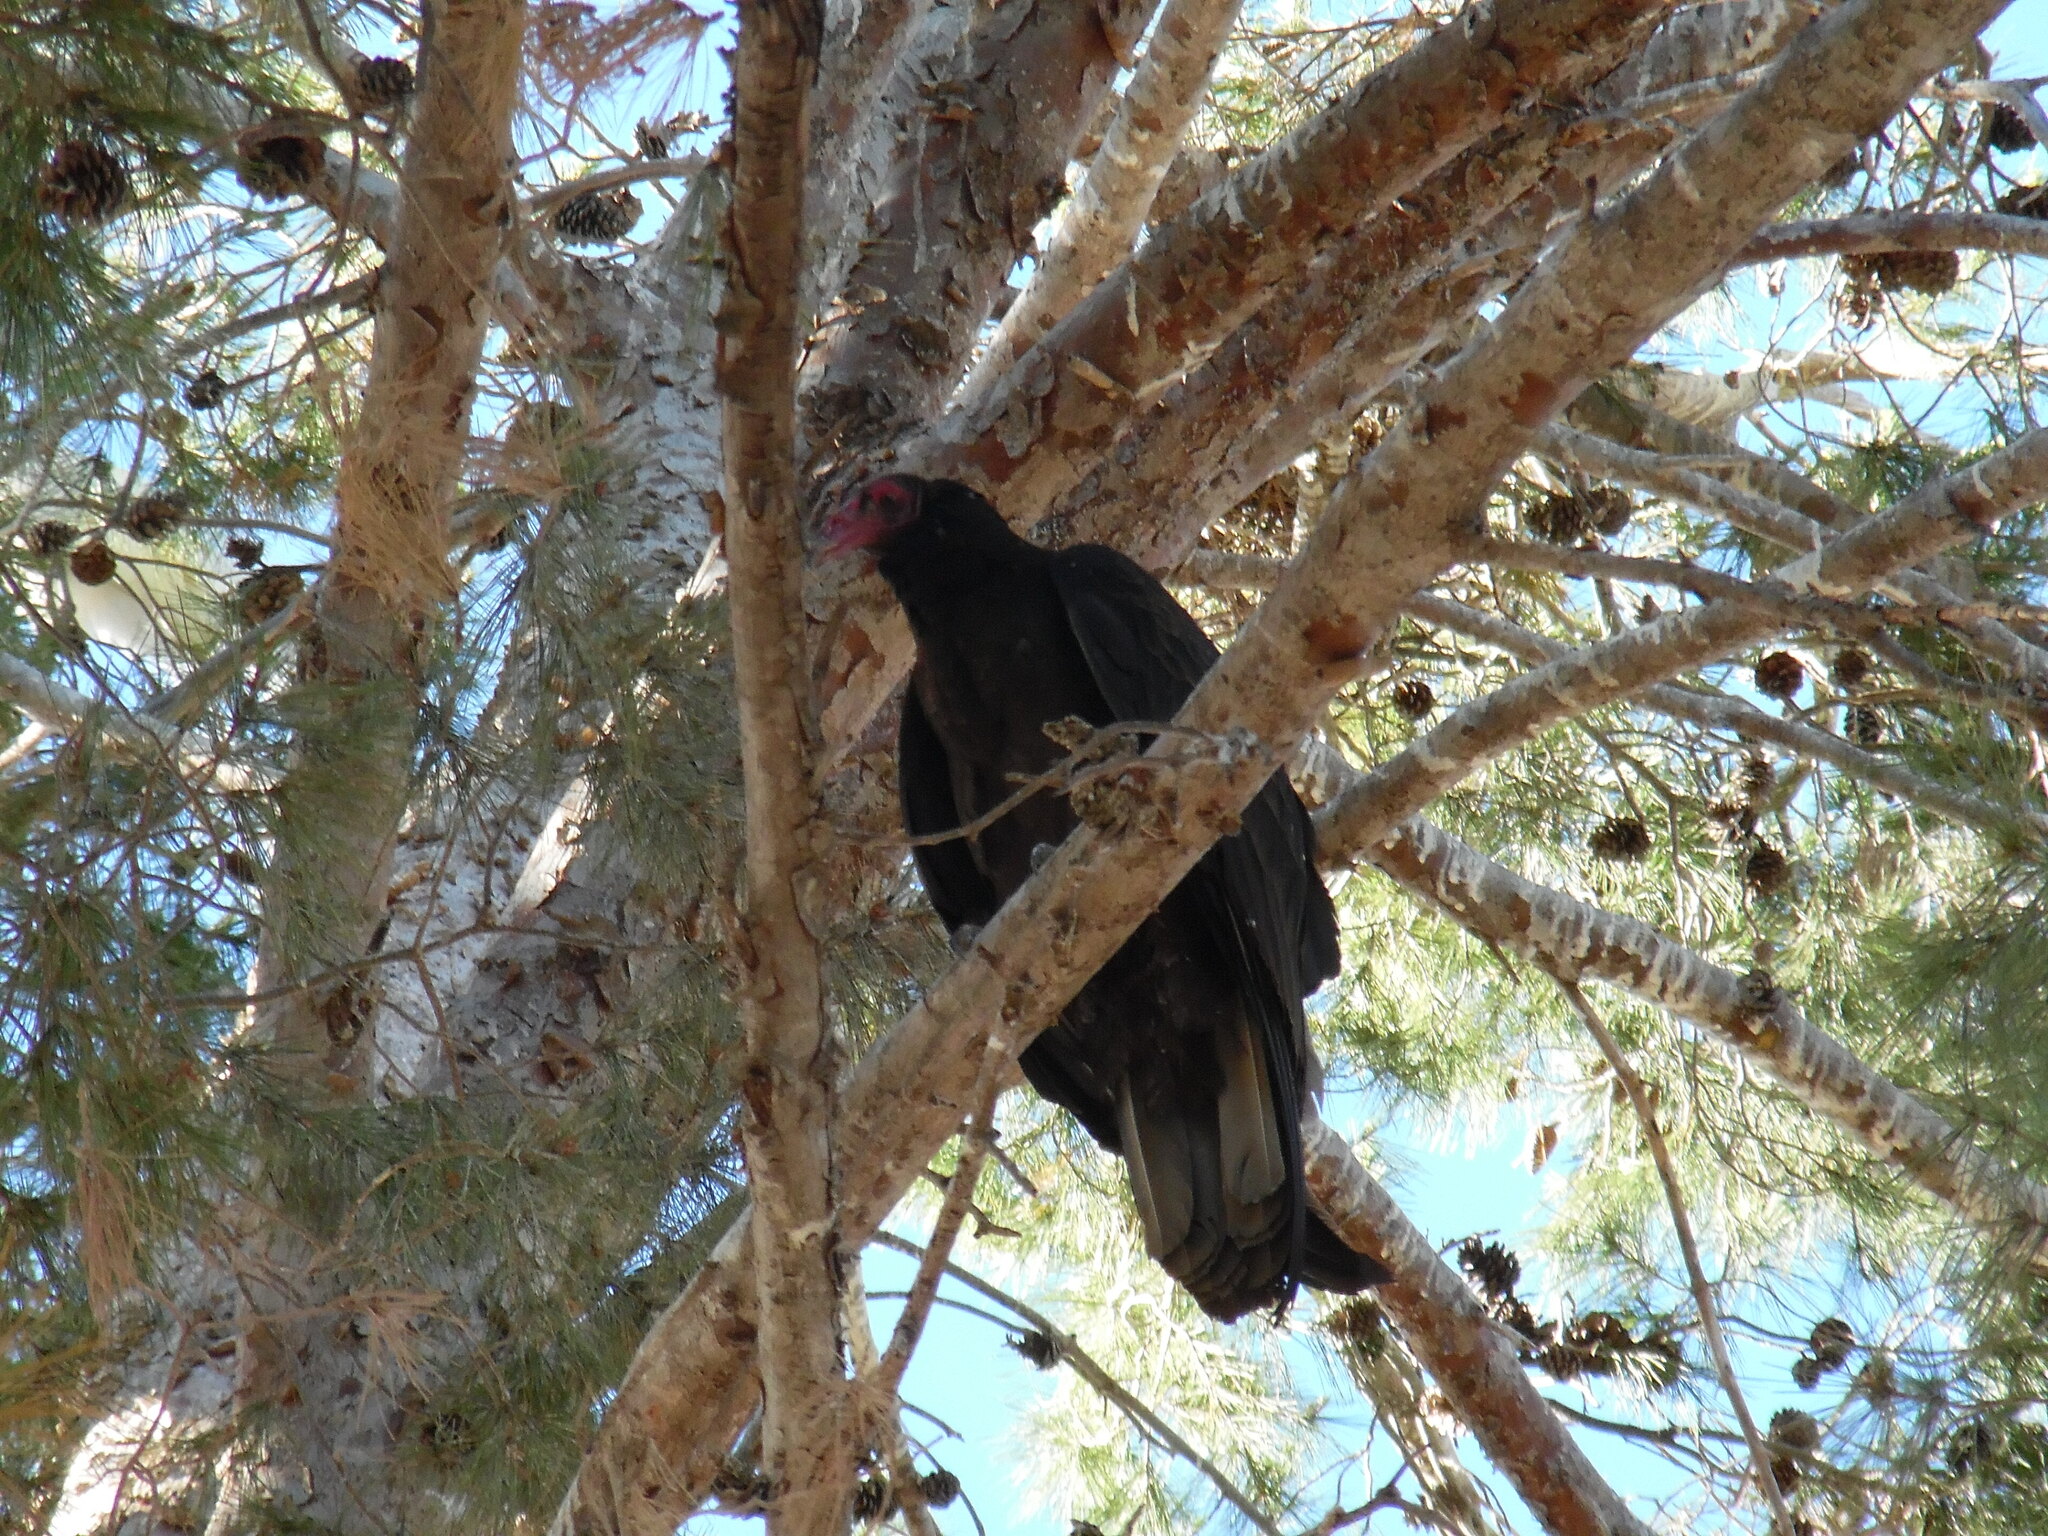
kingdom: Animalia
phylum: Chordata
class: Aves
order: Accipitriformes
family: Cathartidae
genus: Cathartes
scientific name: Cathartes aura
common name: Turkey vulture
